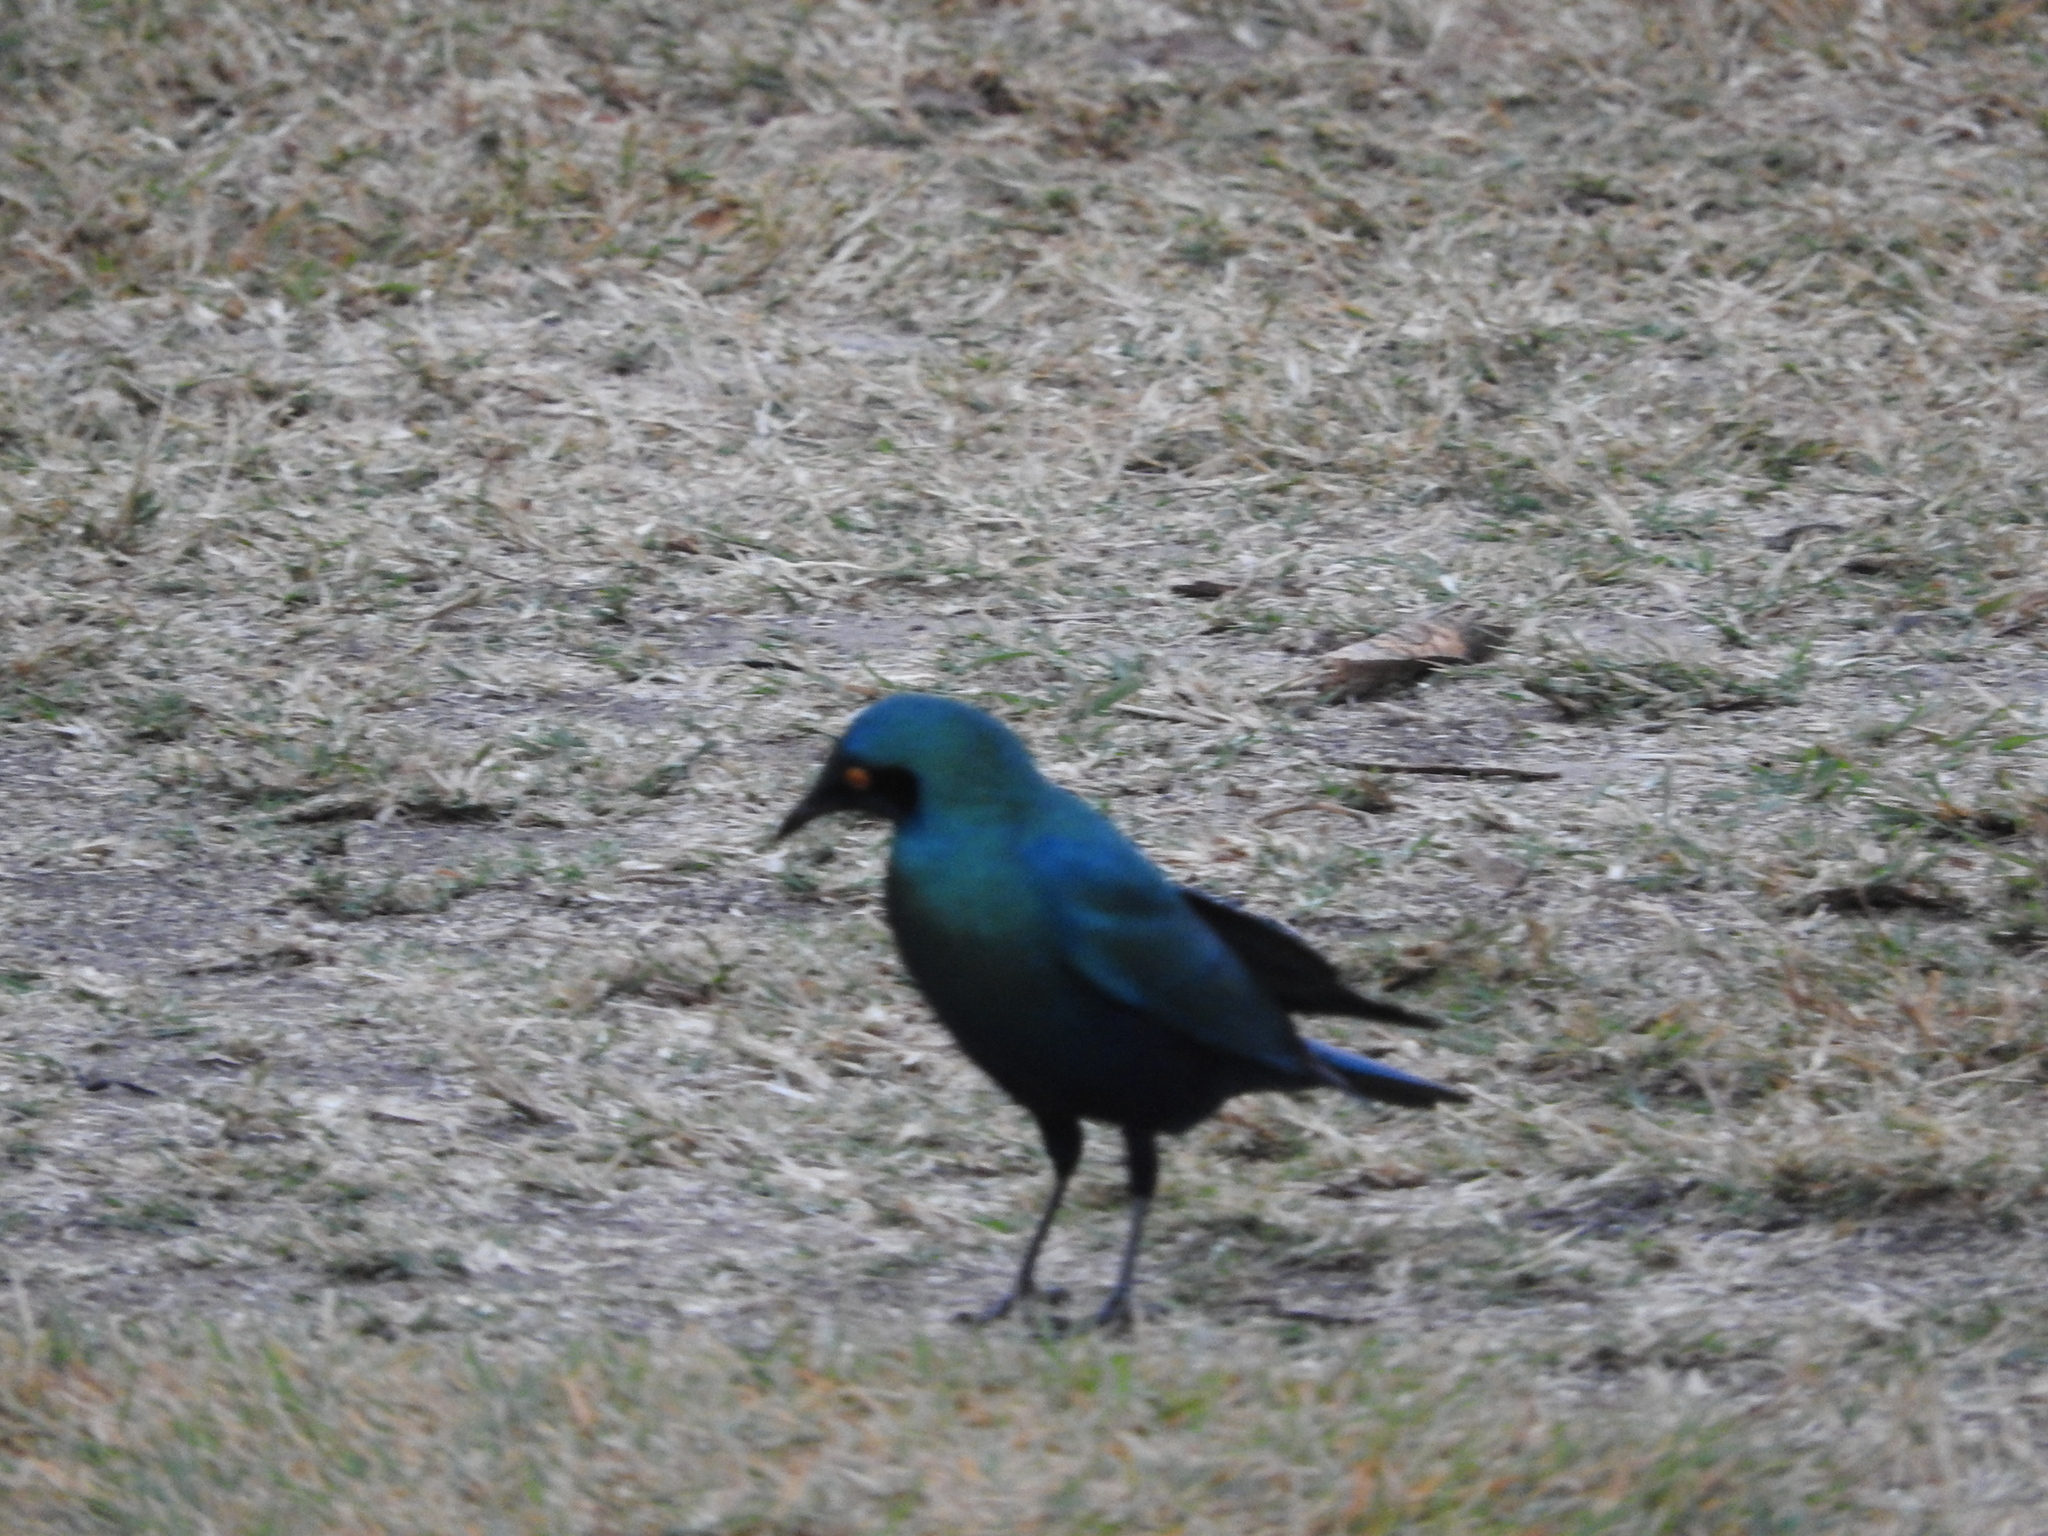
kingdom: Animalia
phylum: Chordata
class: Aves
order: Passeriformes
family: Sturnidae
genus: Lamprotornis
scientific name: Lamprotornis chalybaeus
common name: Greater blue-eared starling
